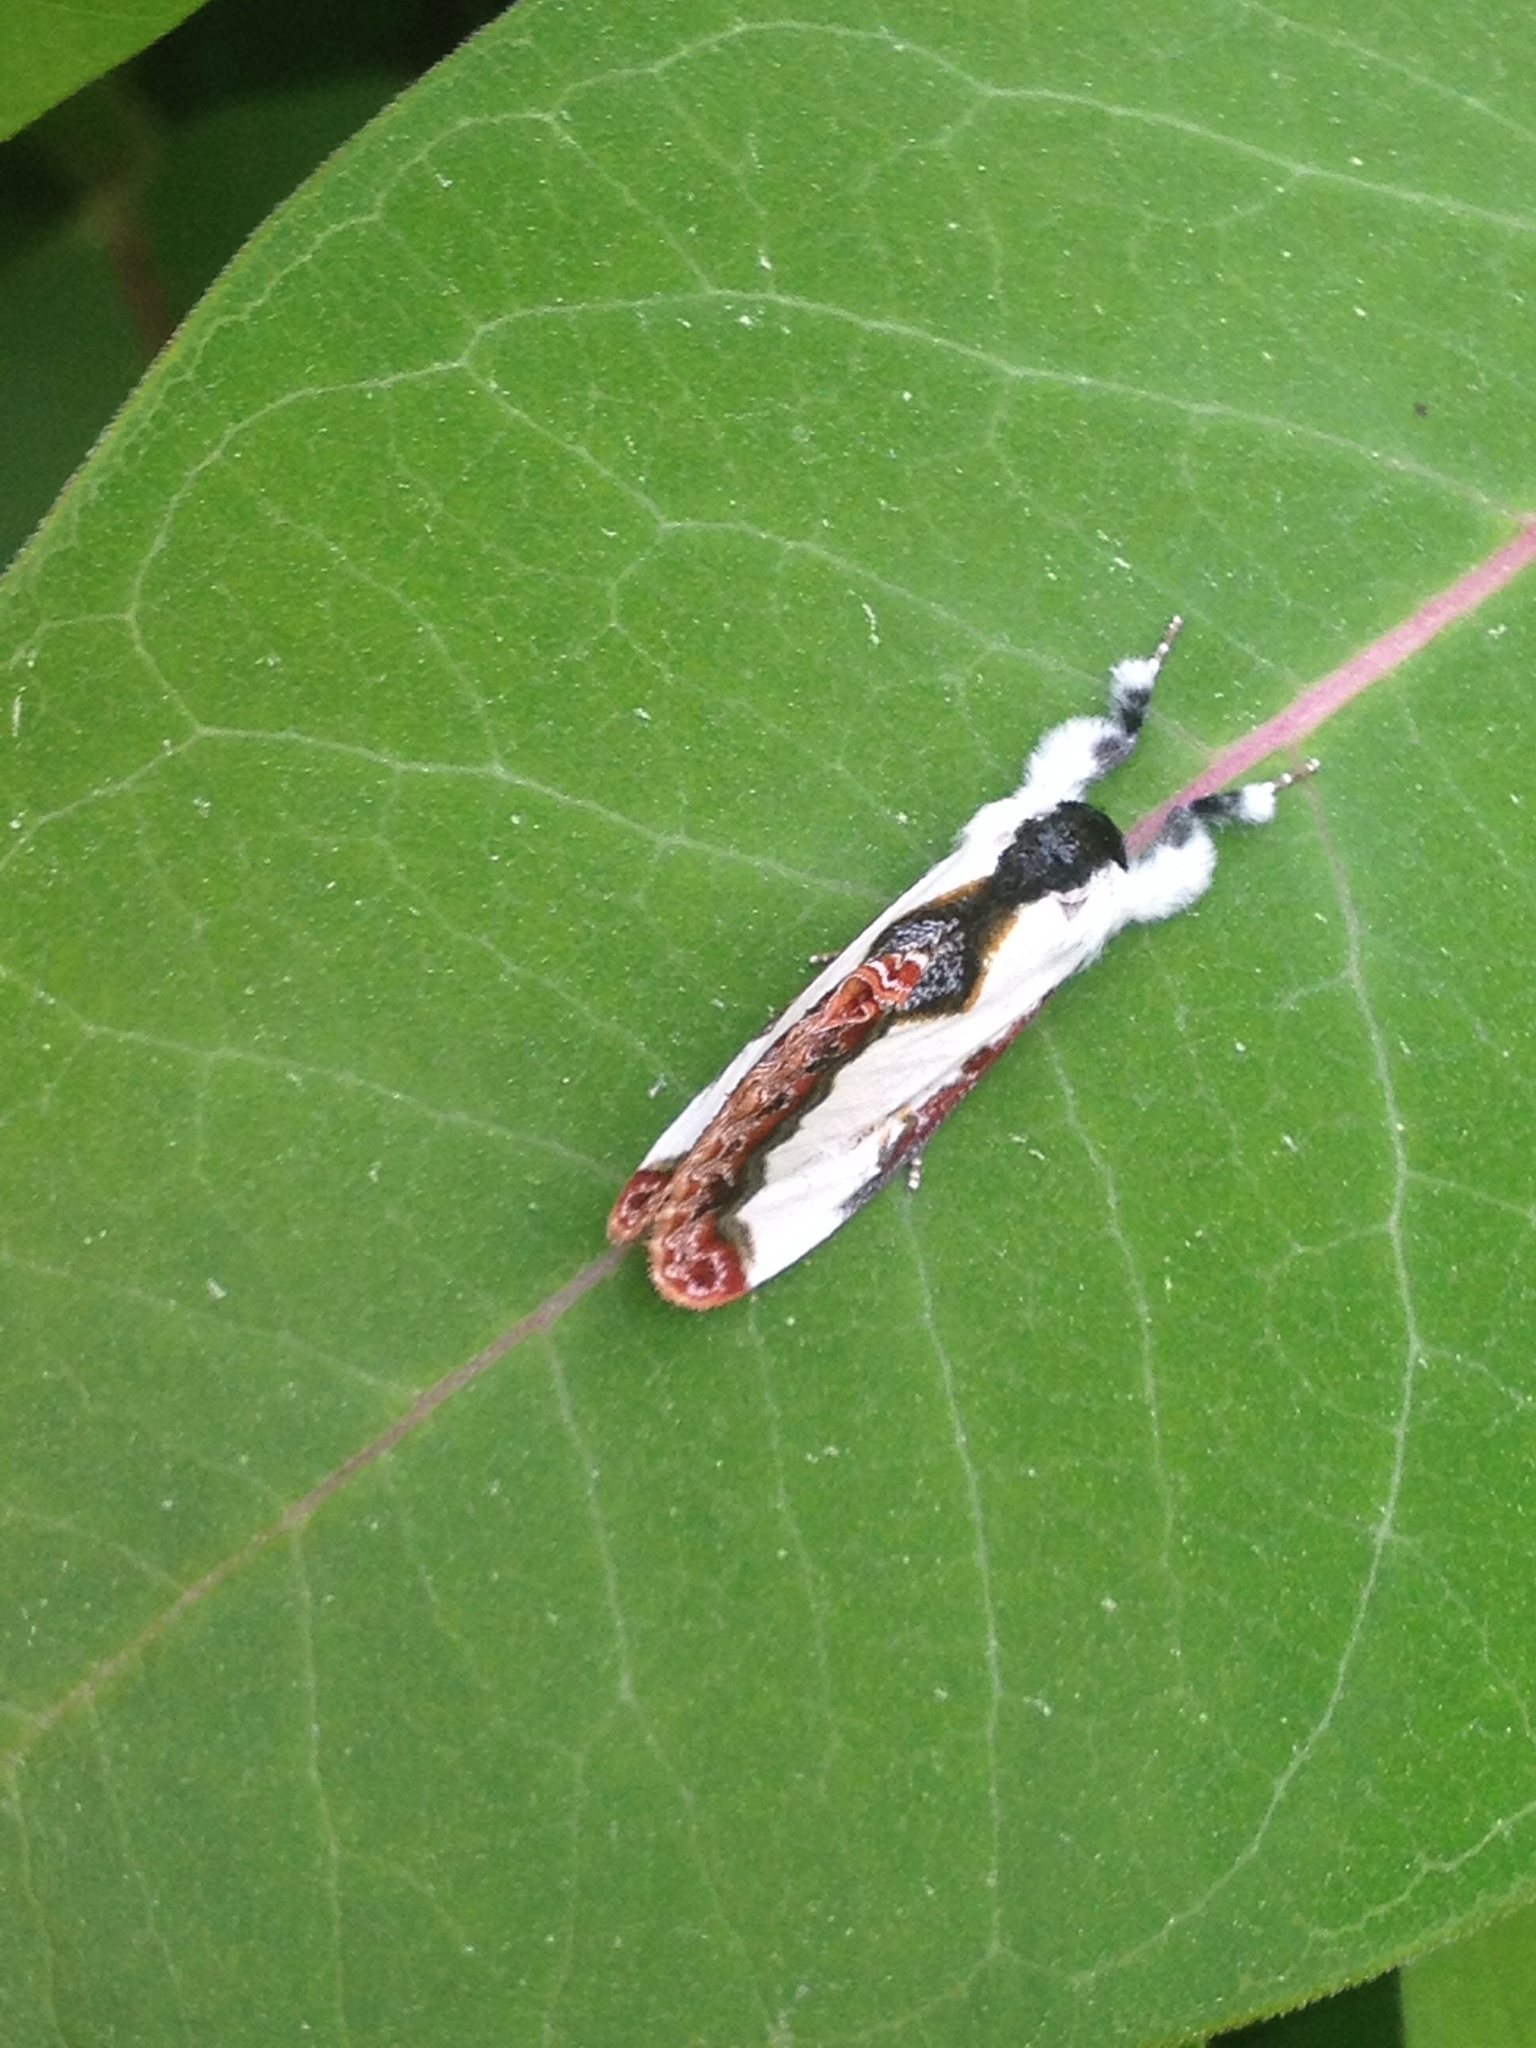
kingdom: Animalia
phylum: Arthropoda
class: Insecta
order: Lepidoptera
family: Noctuidae
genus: Eudryas
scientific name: Eudryas unio
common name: Pearly wood-nymph
